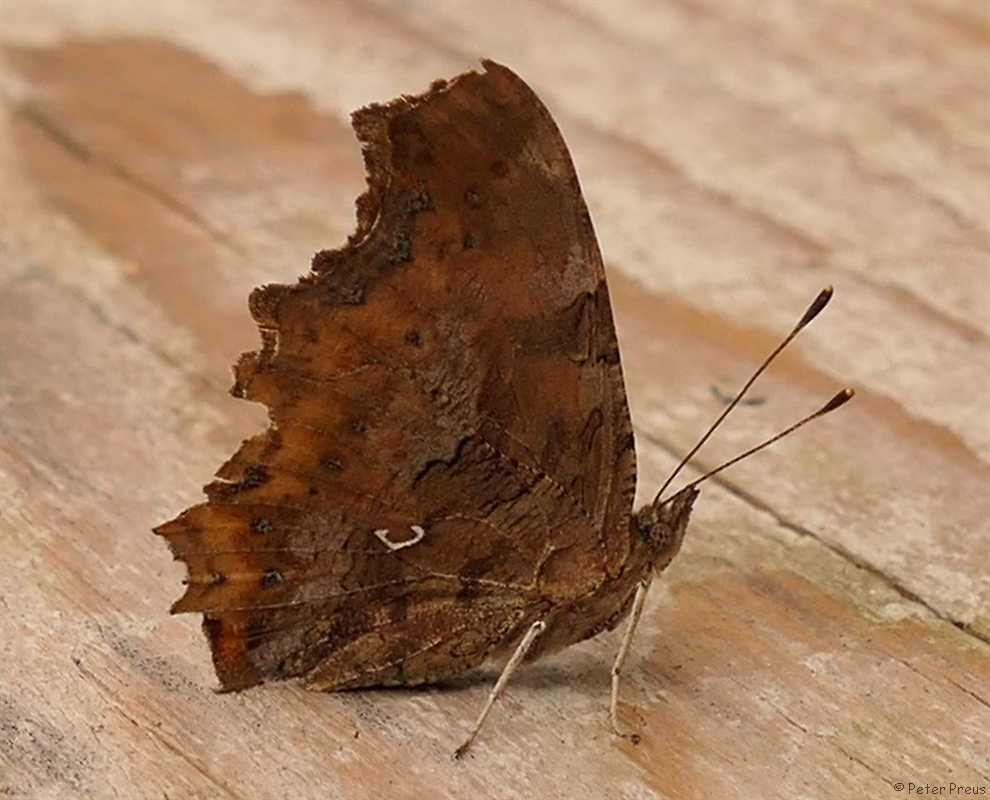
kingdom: Animalia
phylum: Arthropoda
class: Insecta
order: Lepidoptera
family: Nymphalidae
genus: Polygonia
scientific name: Polygonia c-album
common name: Comma
